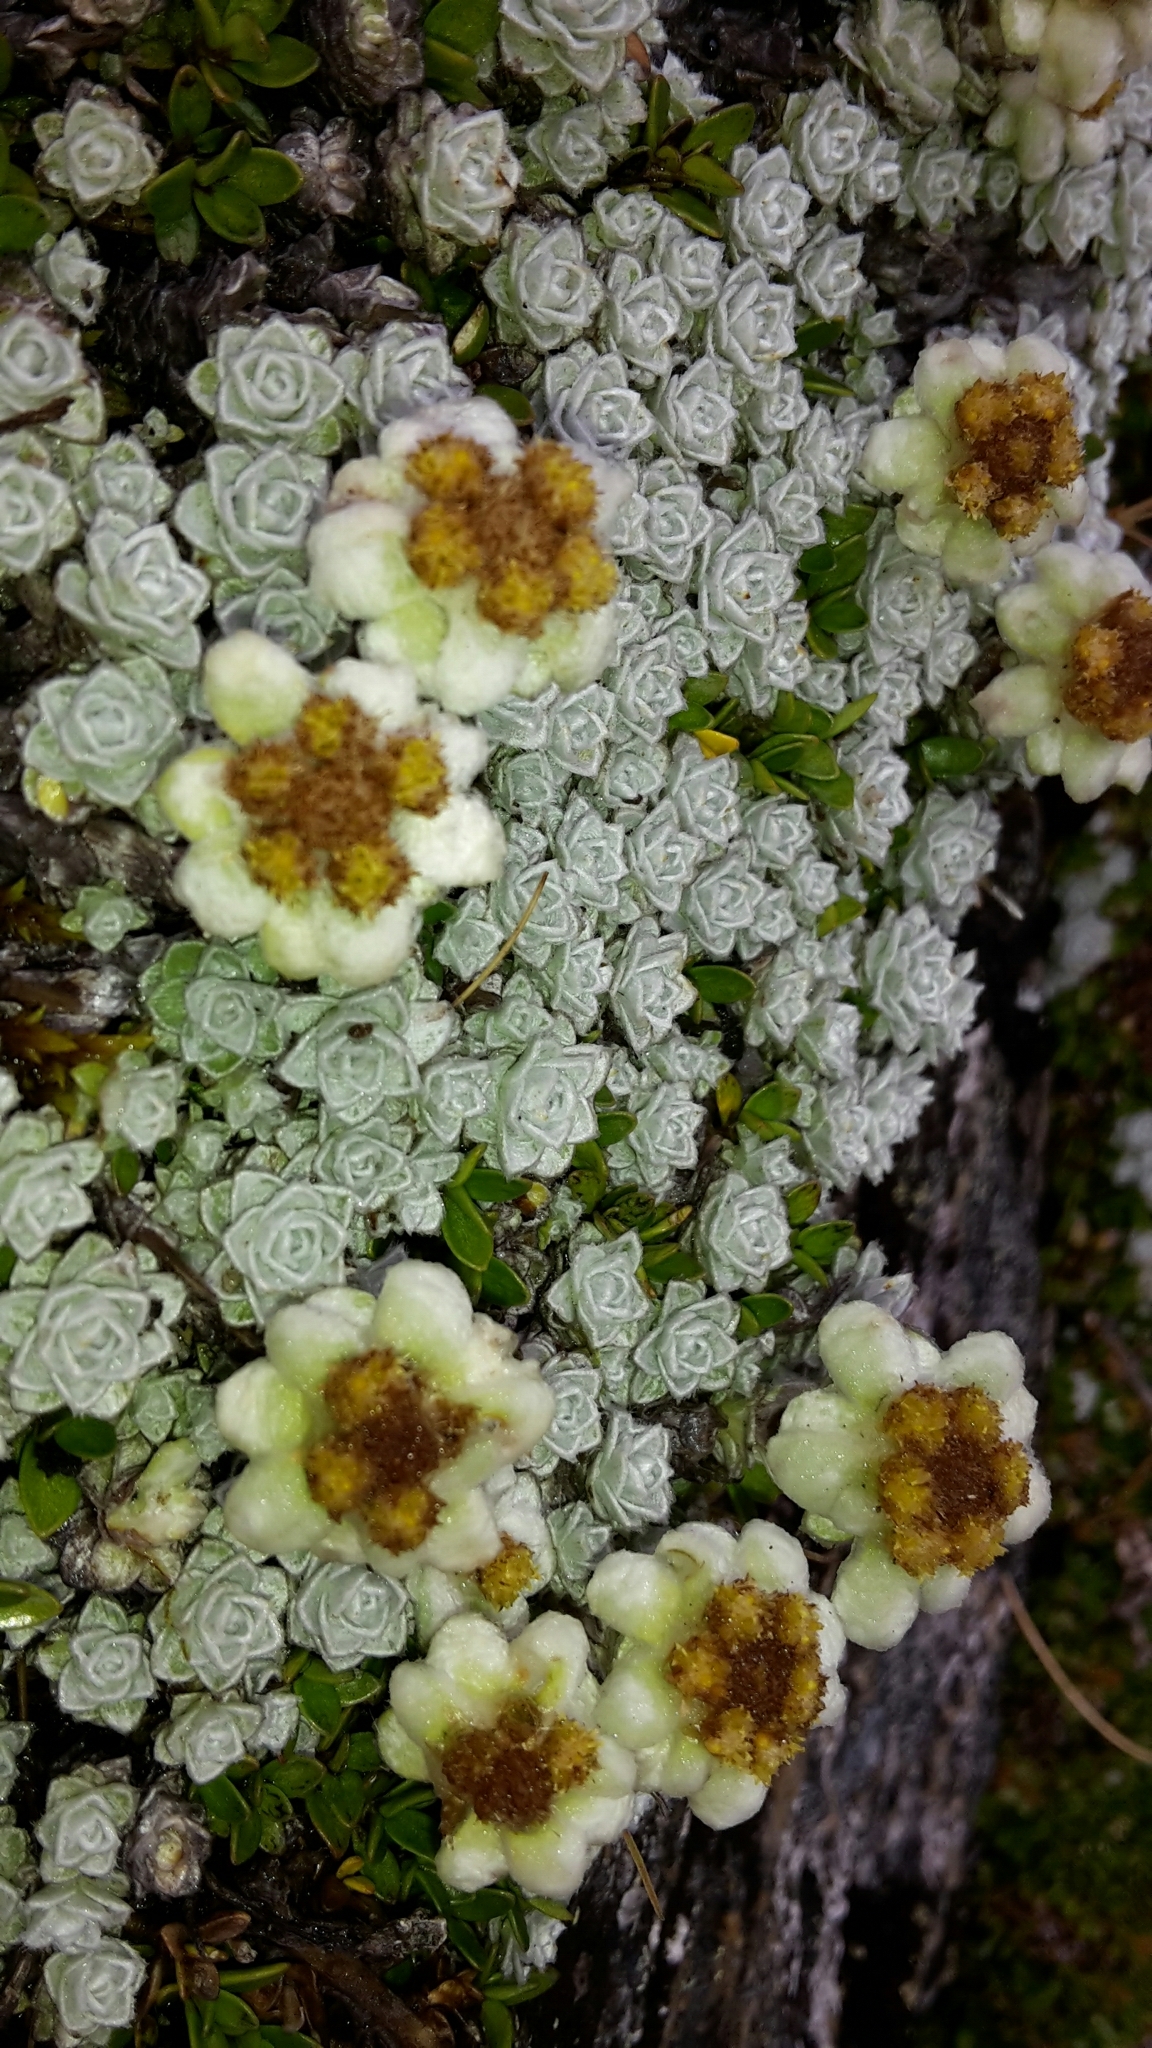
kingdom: Plantae
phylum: Tracheophyta
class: Magnoliopsida
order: Asterales
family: Asteraceae
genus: Leucogenes
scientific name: Leucogenes grandiceps
